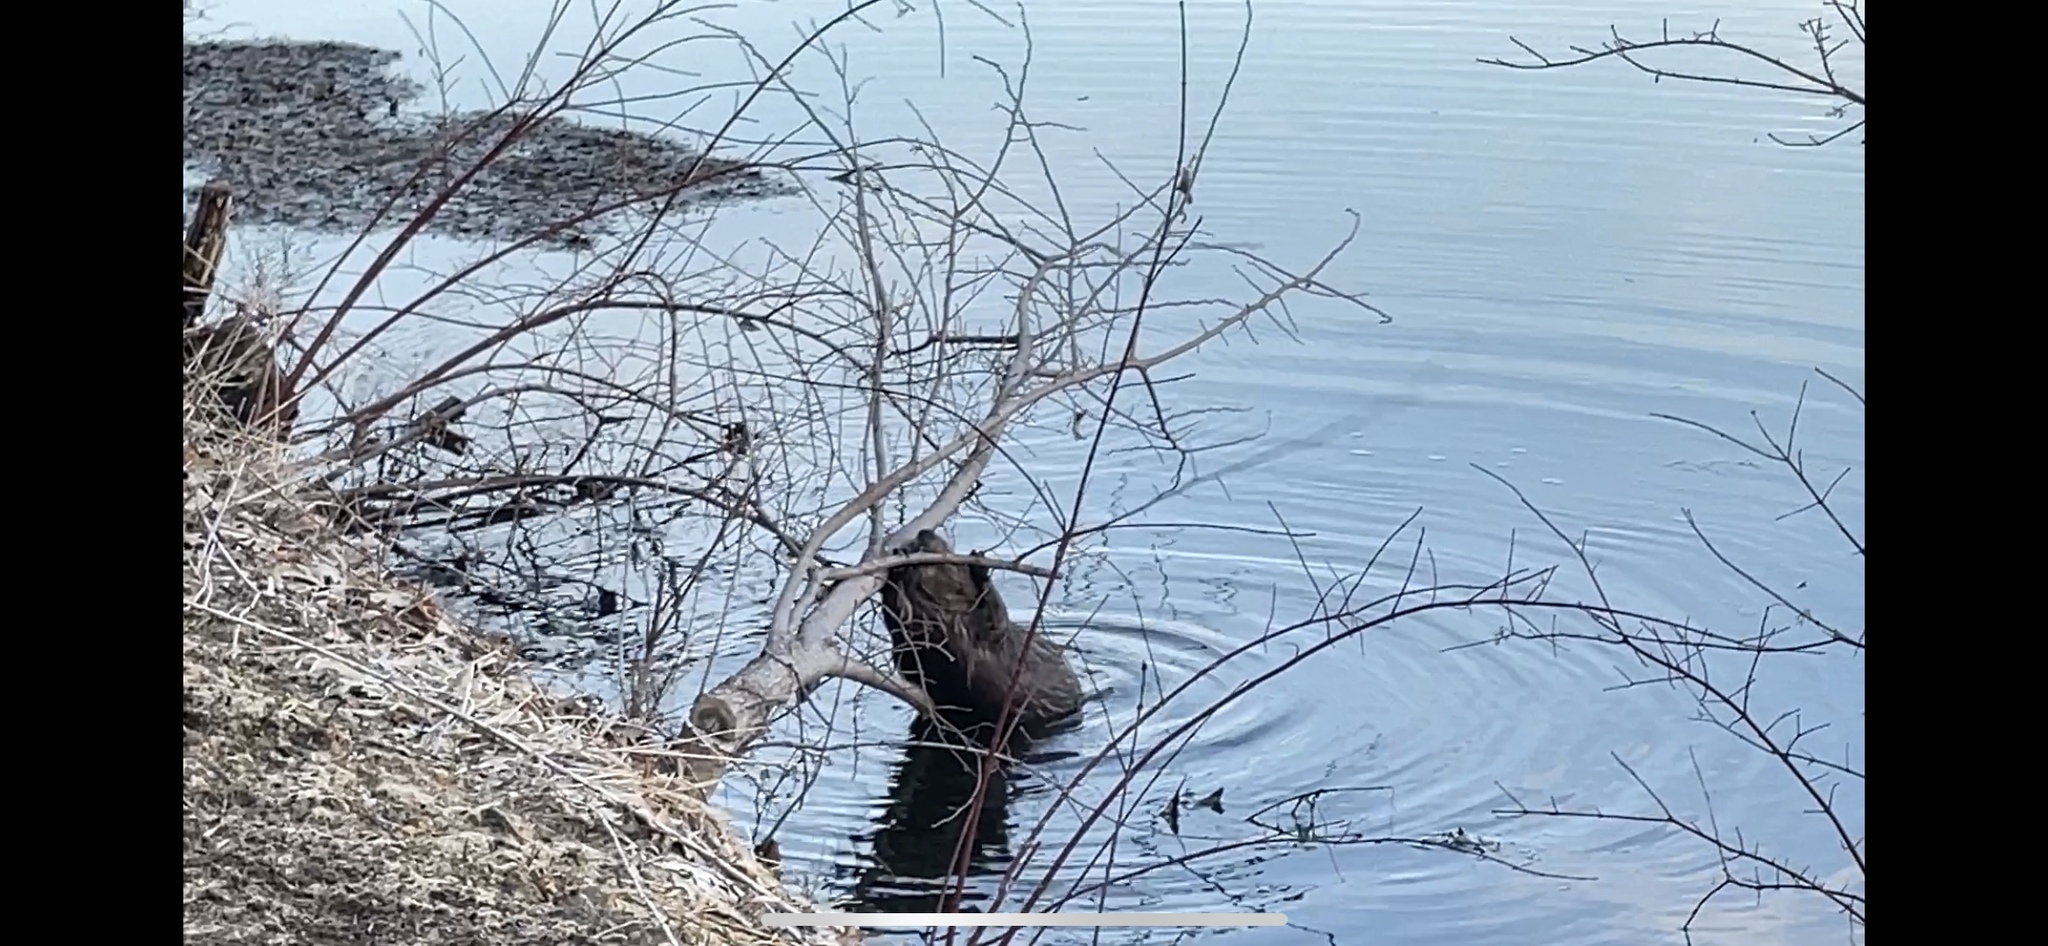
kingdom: Animalia
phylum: Chordata
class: Mammalia
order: Rodentia
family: Castoridae
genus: Castor
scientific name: Castor canadensis
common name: American beaver
